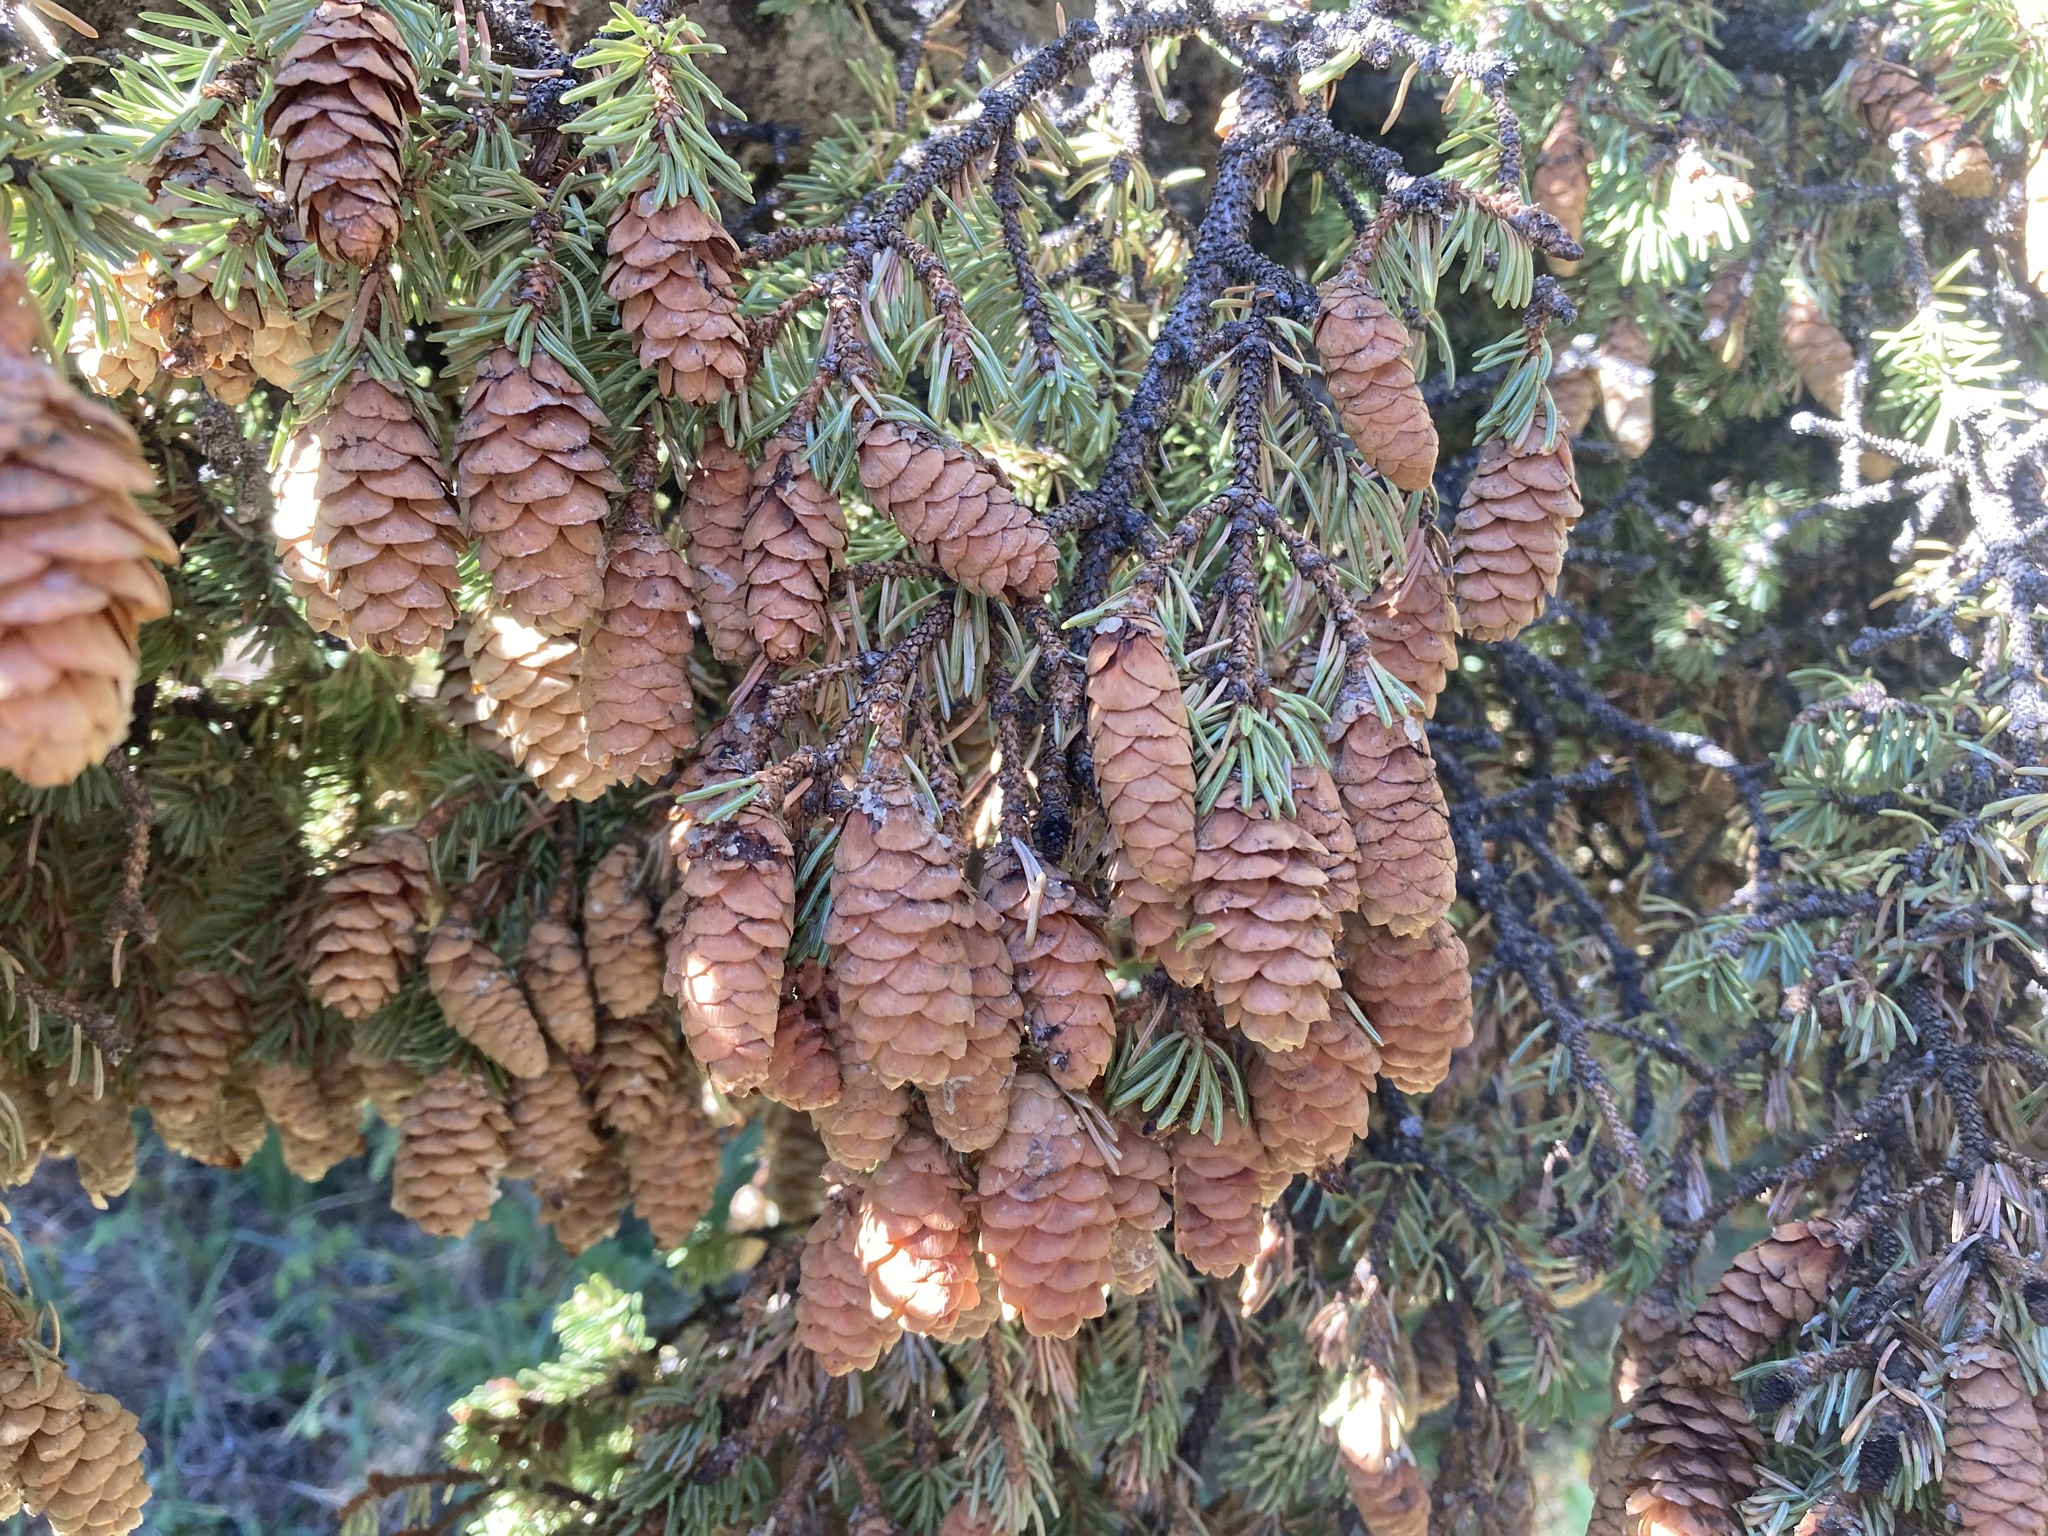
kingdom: Plantae
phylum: Tracheophyta
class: Pinopsida
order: Pinales
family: Pinaceae
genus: Picea
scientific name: Picea glauca
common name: White spruce
